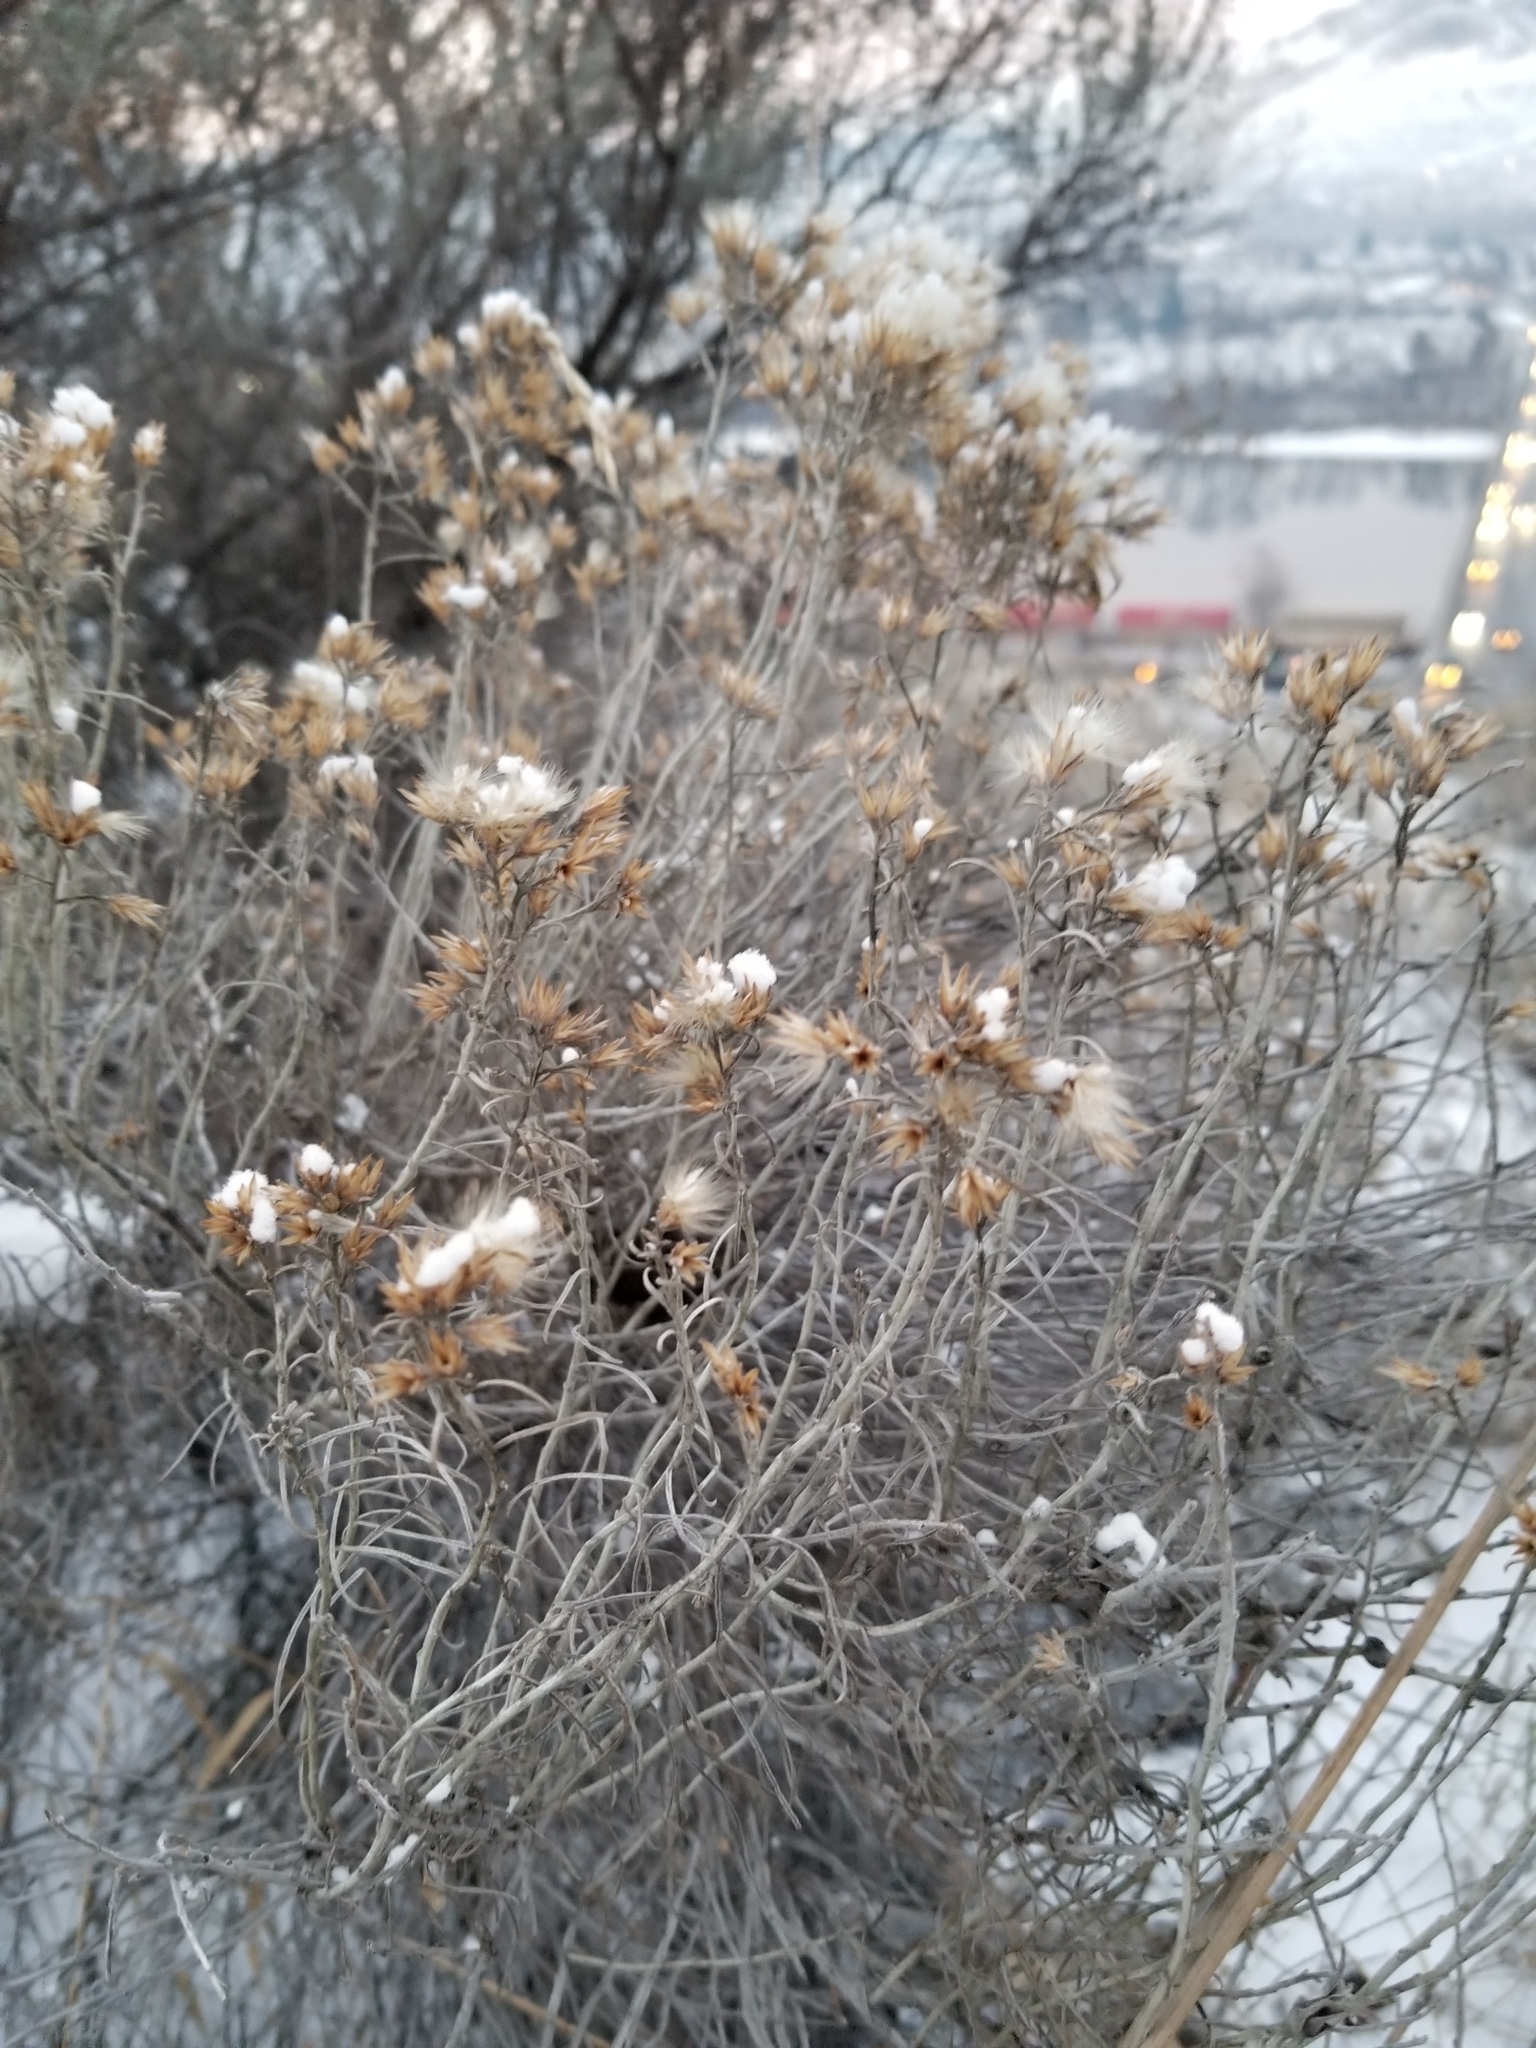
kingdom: Plantae
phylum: Tracheophyta
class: Magnoliopsida
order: Asterales
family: Asteraceae
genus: Ericameria
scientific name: Ericameria nauseosa
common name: Rubber rabbitbrush
